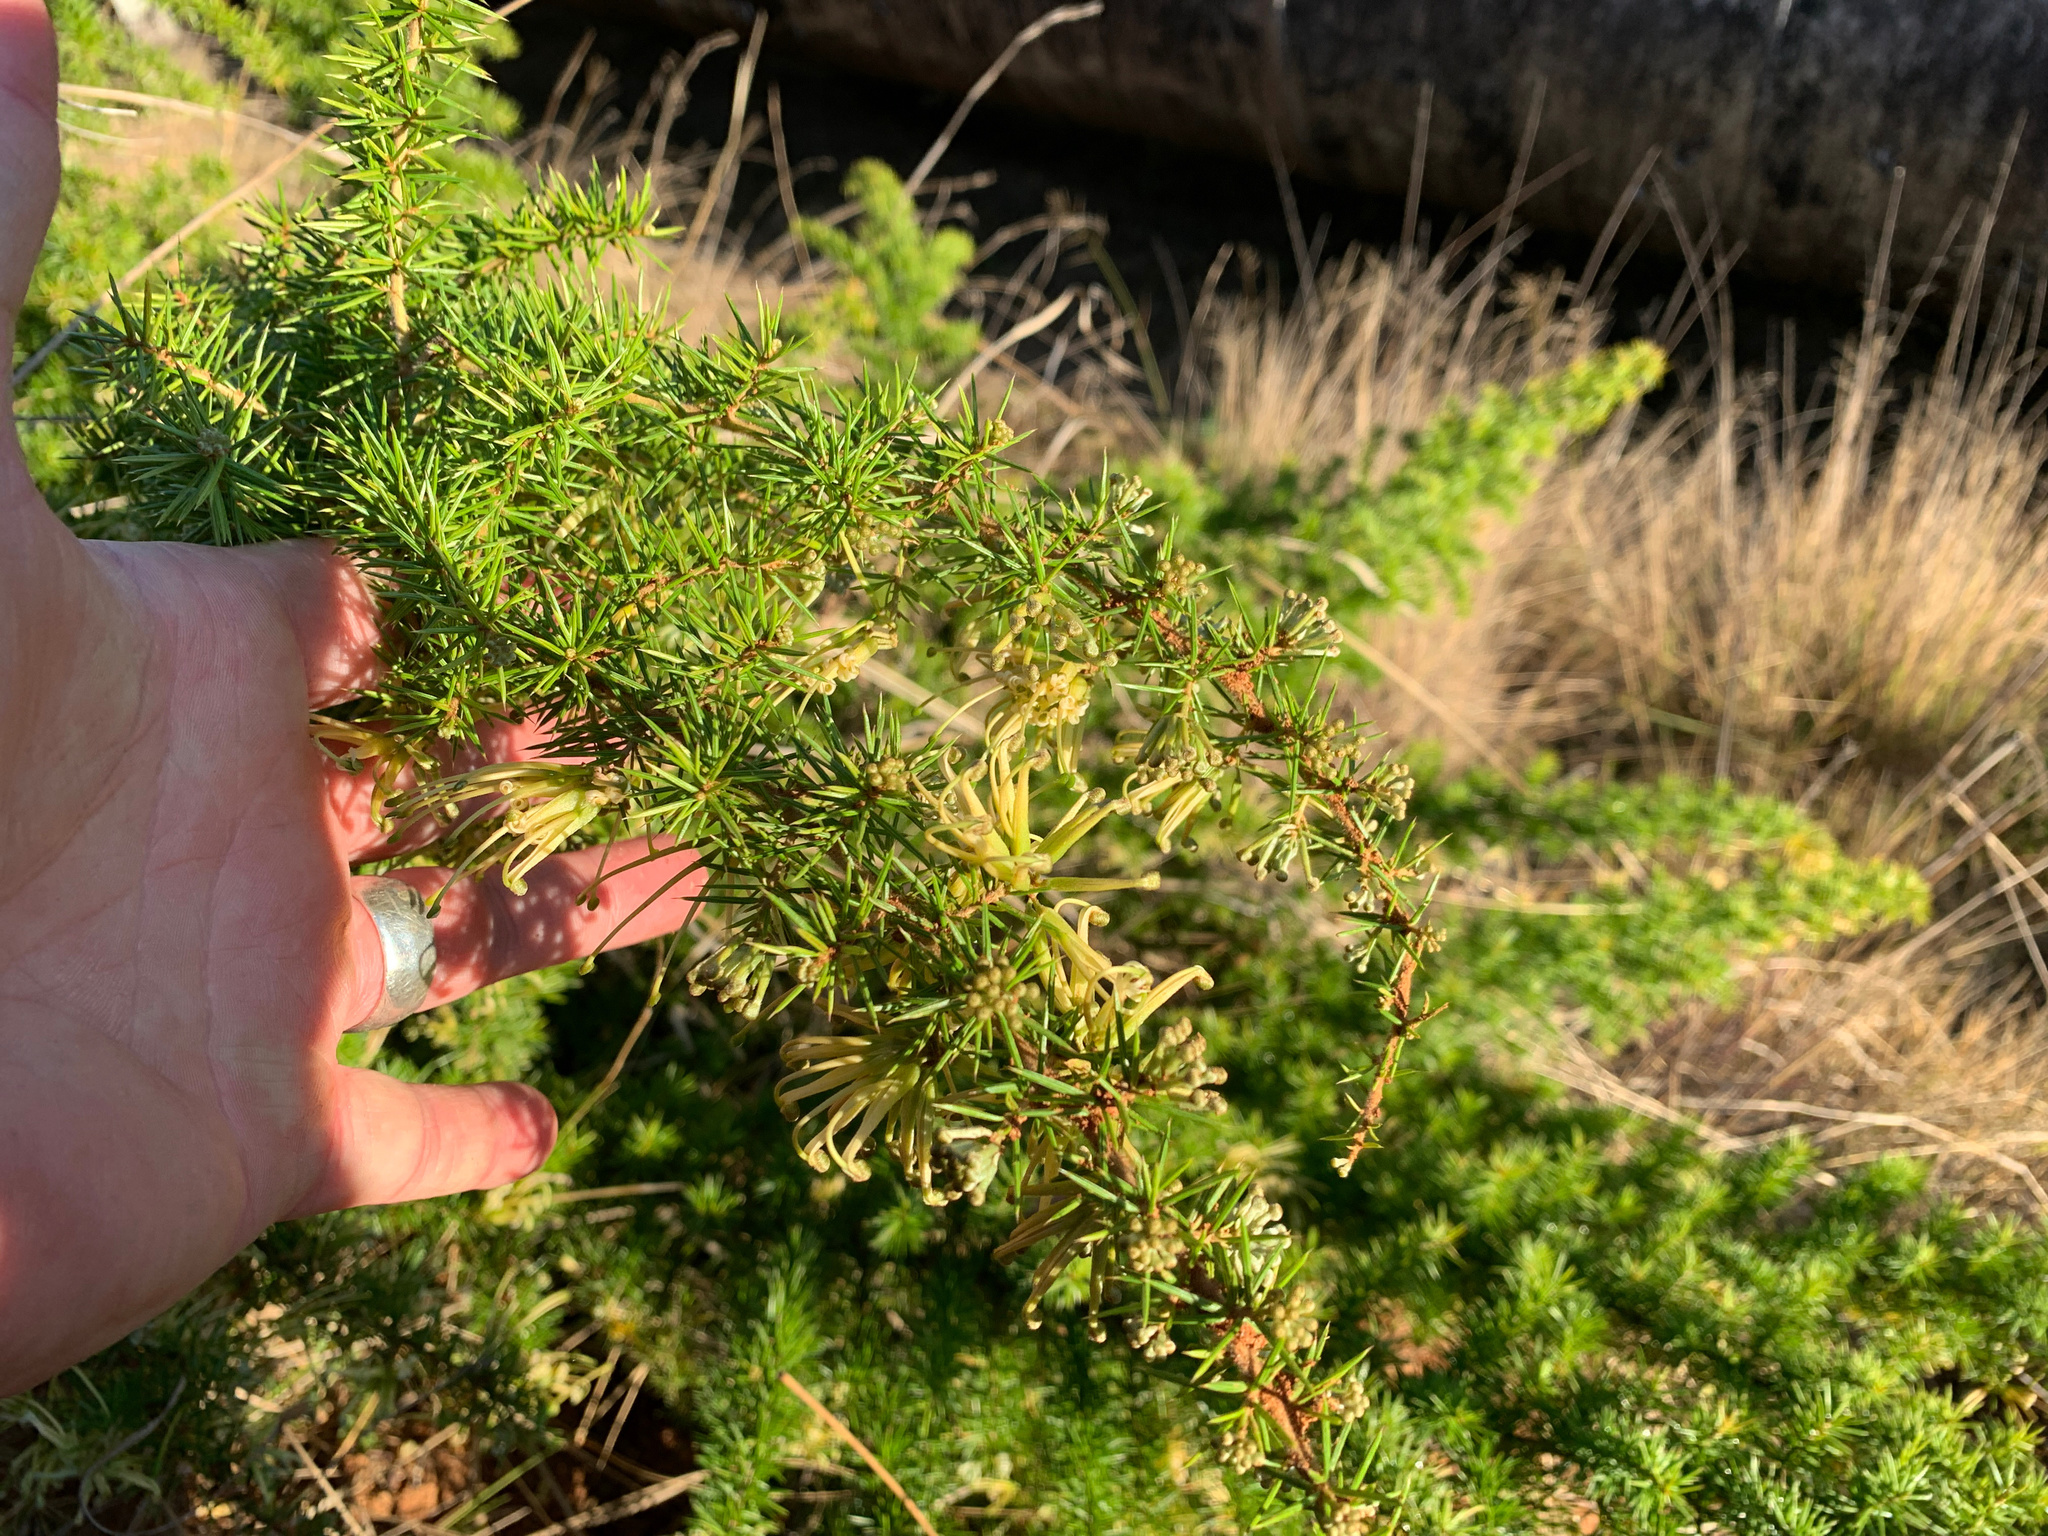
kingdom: Plantae
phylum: Tracheophyta
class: Magnoliopsida
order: Proteales
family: Proteaceae
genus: Grevillea
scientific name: Grevillea juniperina
